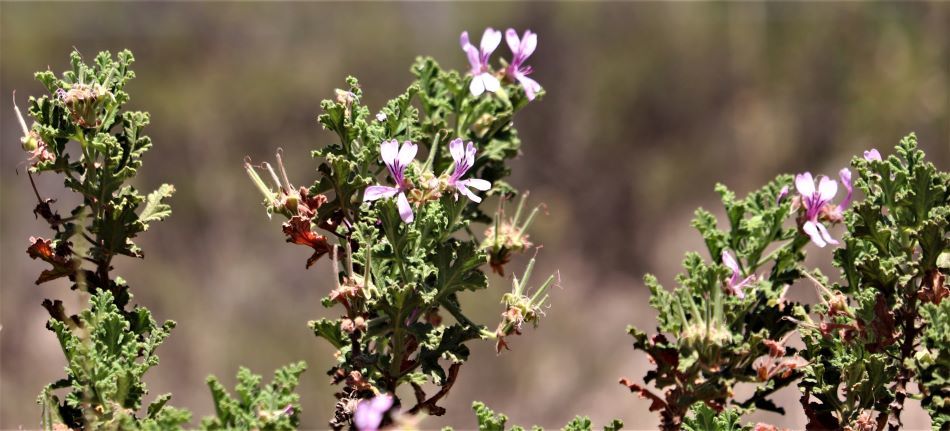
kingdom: Plantae
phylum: Tracheophyta
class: Magnoliopsida
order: Geraniales
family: Geraniaceae
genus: Pelargonium
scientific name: Pelargonium panduriforme
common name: Oakleaf garden geranium
